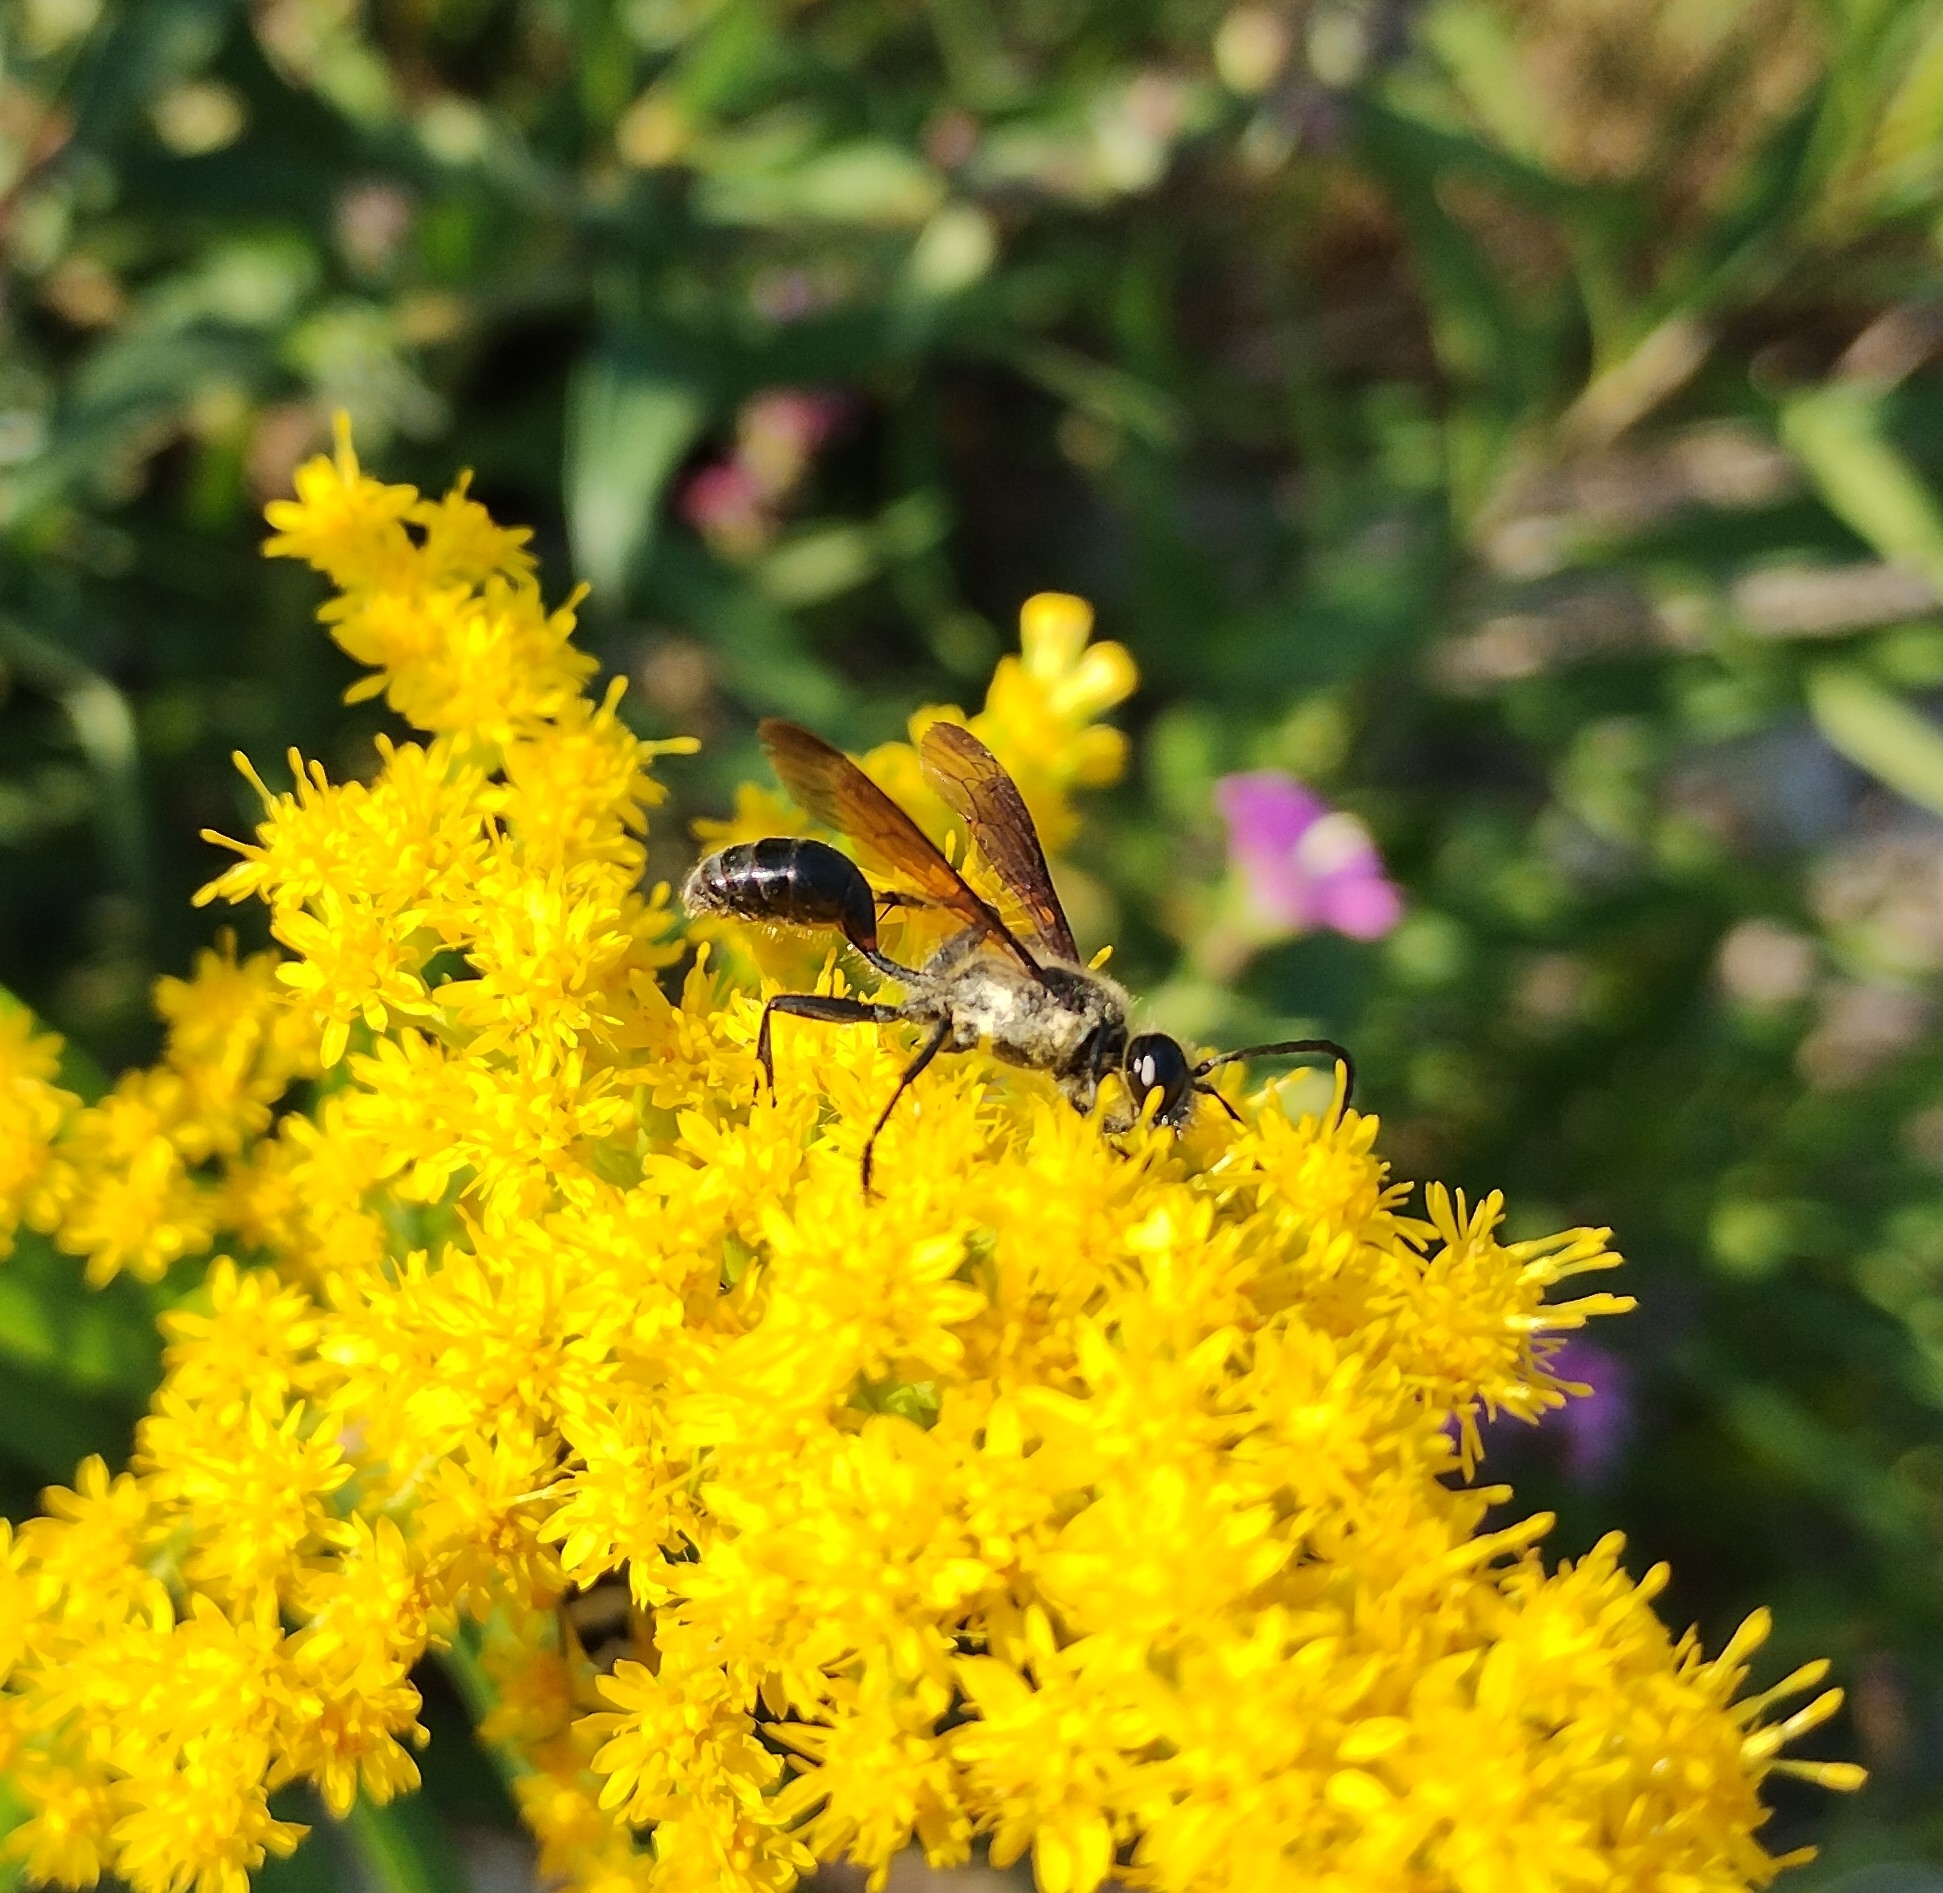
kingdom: Animalia
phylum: Arthropoda
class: Insecta
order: Hymenoptera
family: Sphecidae
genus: Isodontia
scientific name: Isodontia mexicana
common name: Mud dauber
